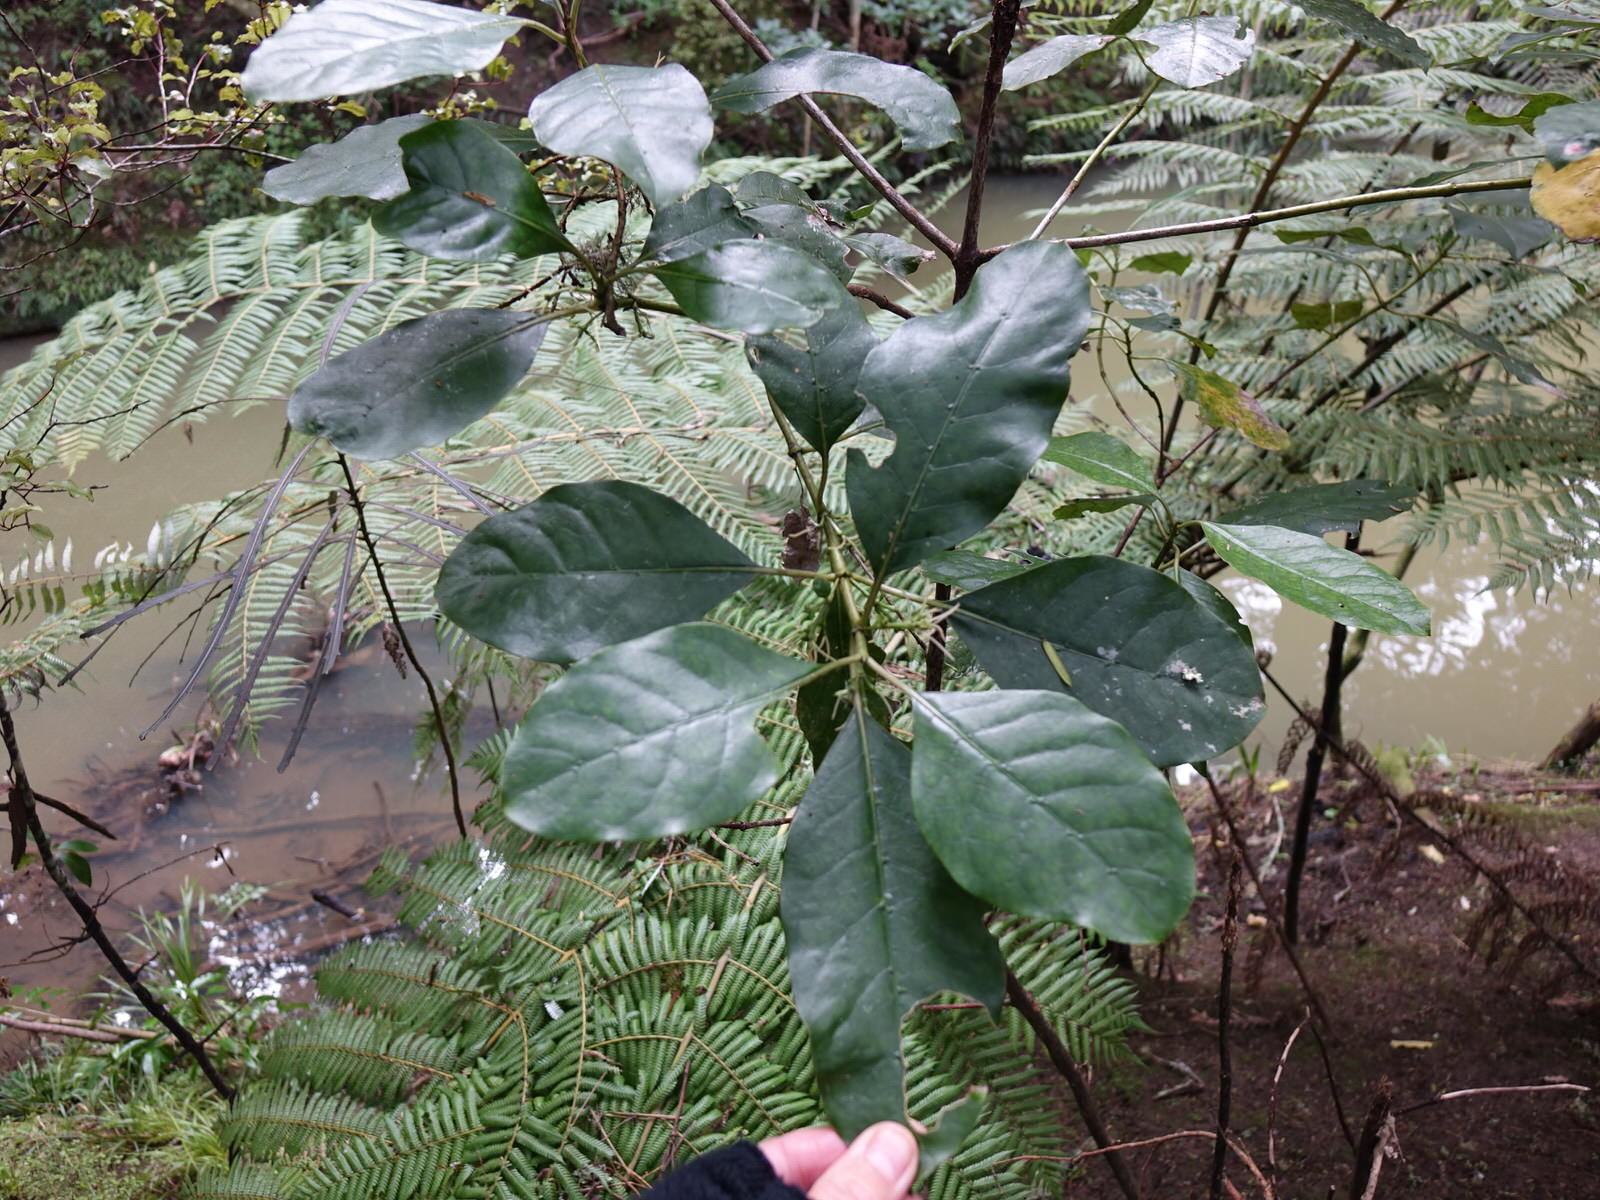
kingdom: Plantae
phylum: Tracheophyta
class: Magnoliopsida
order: Gentianales
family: Rubiaceae
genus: Coprosma
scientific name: Coprosma autumnalis
